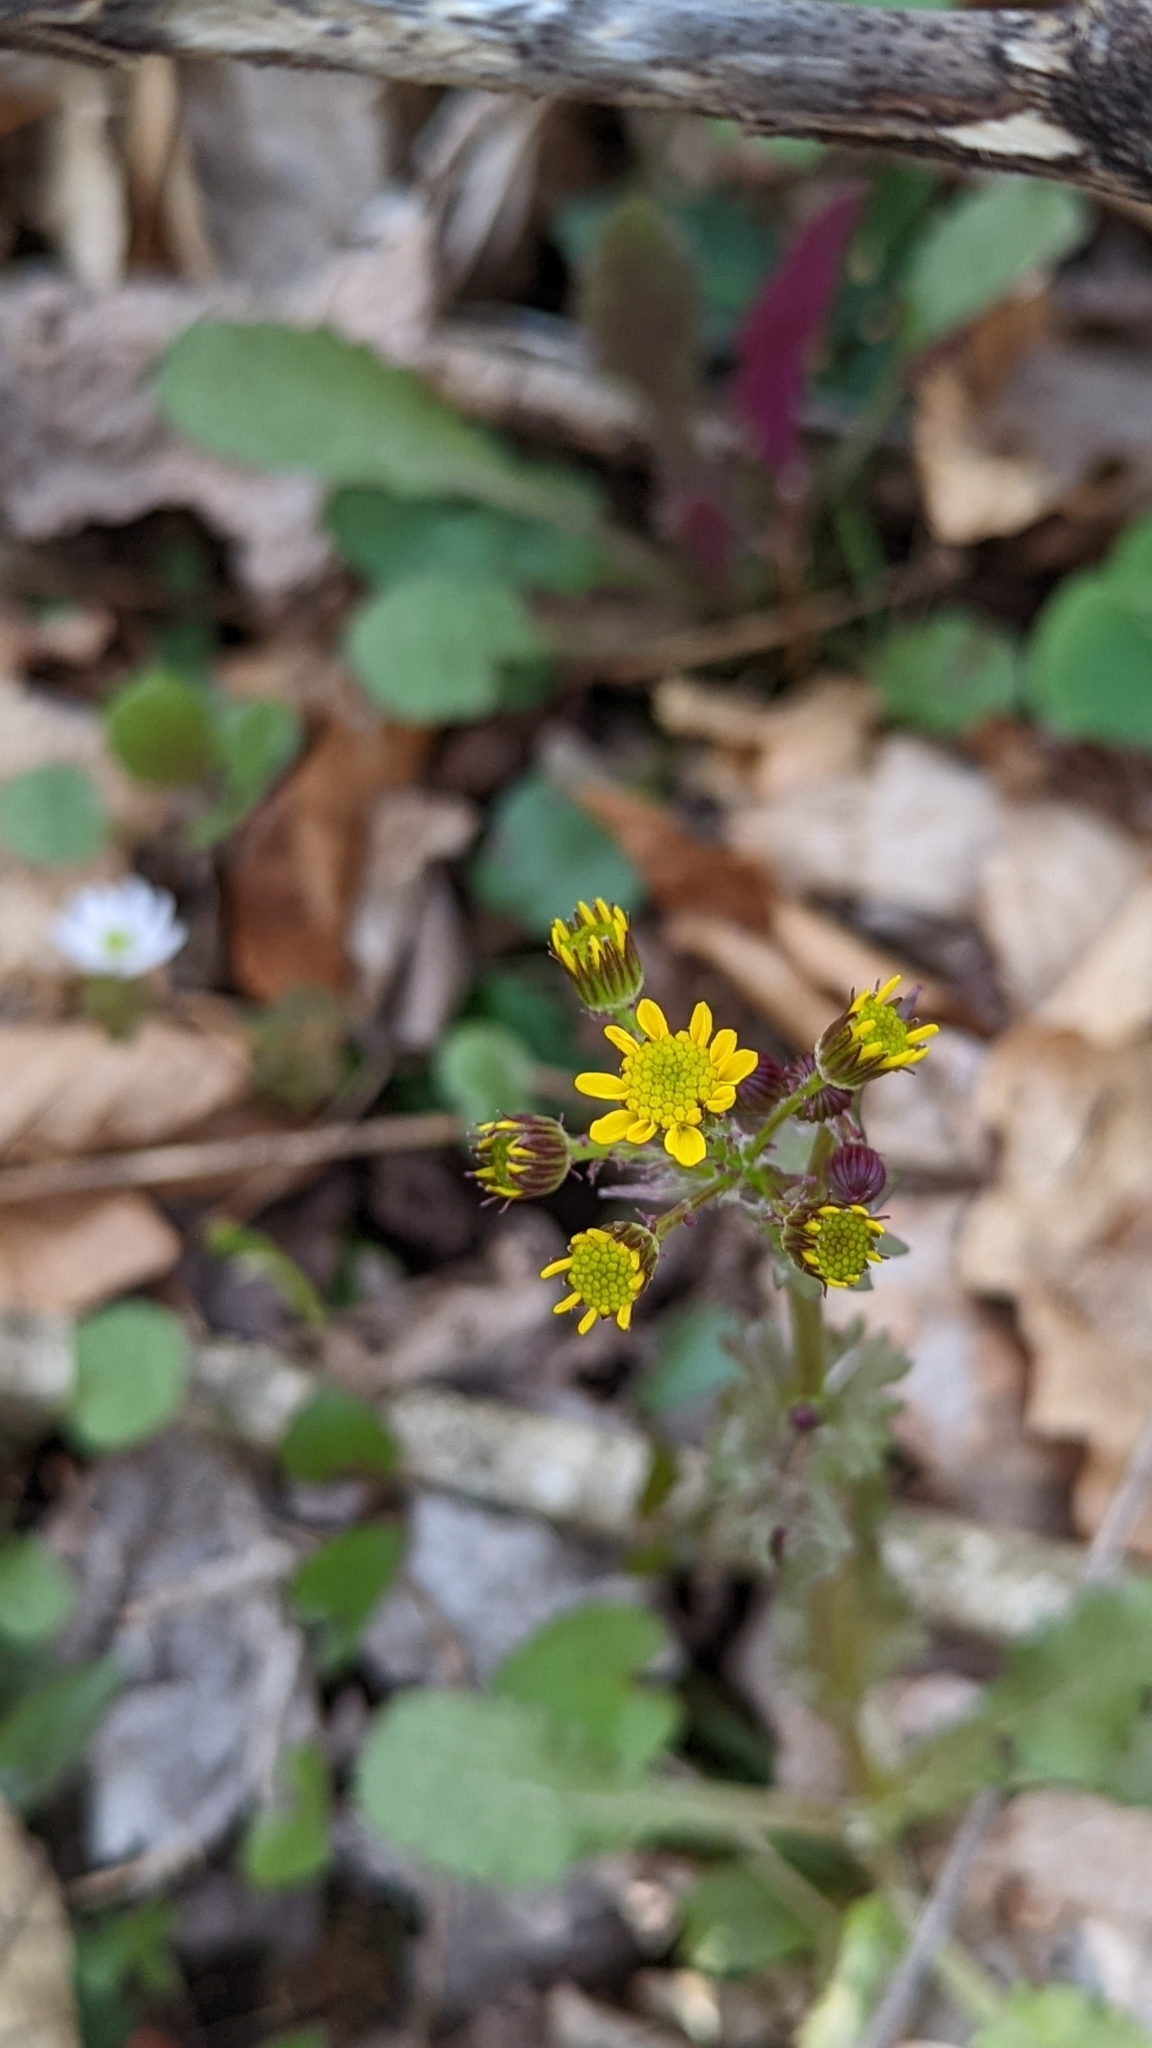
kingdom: Plantae
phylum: Tracheophyta
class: Magnoliopsida
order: Asterales
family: Asteraceae
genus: Packera
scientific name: Packera obovata
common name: Round-leaf ragwort
